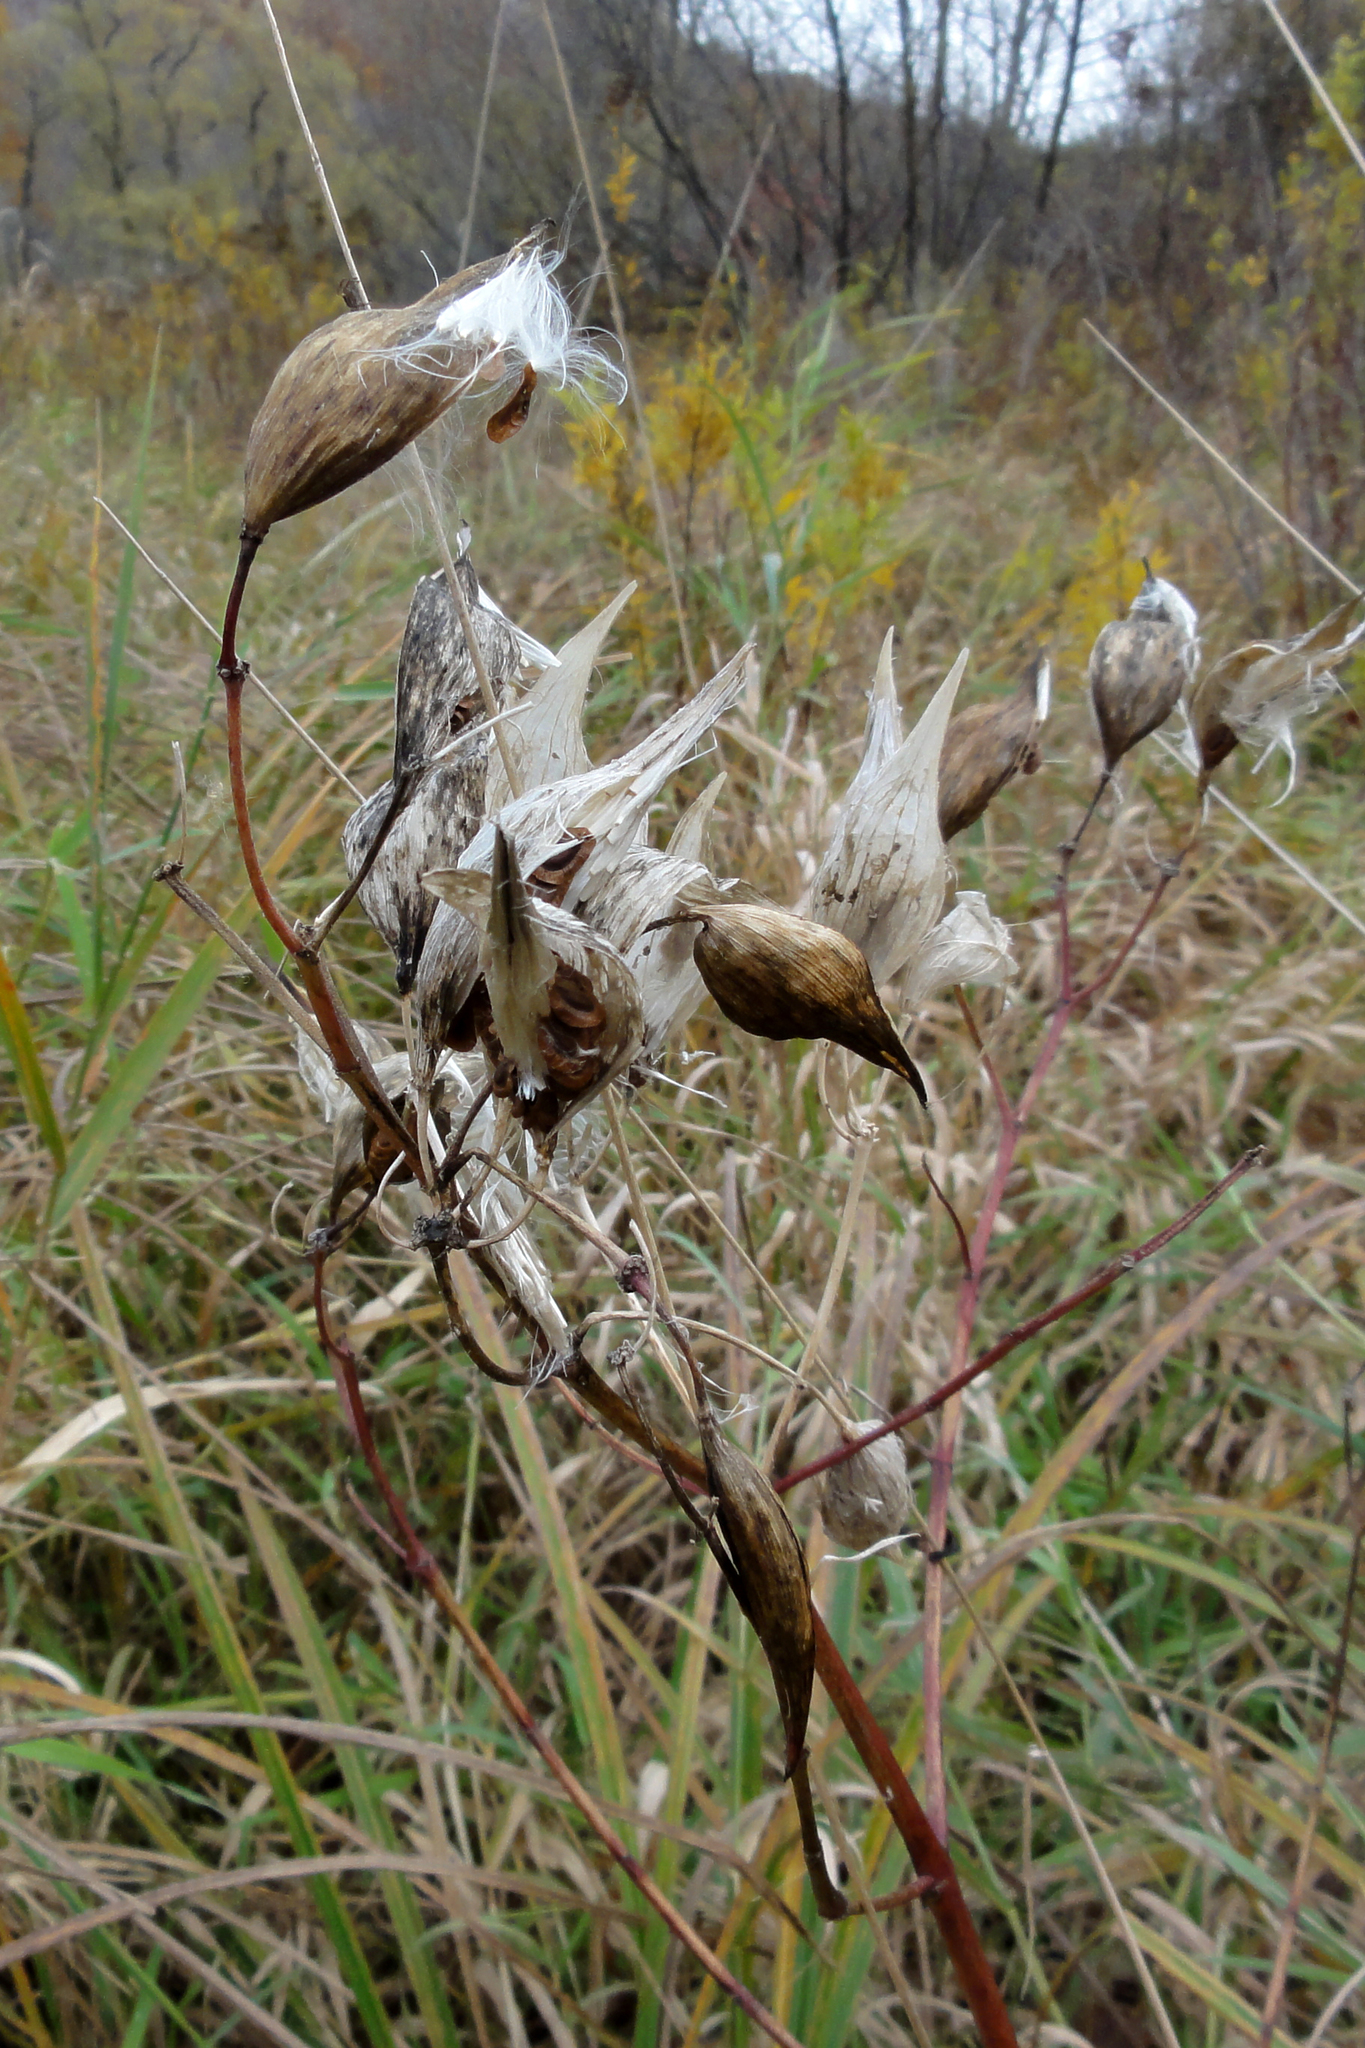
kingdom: Plantae
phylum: Tracheophyta
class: Magnoliopsida
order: Gentianales
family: Apocynaceae
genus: Asclepias
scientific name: Asclepias incarnata
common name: Swamp milkweed
